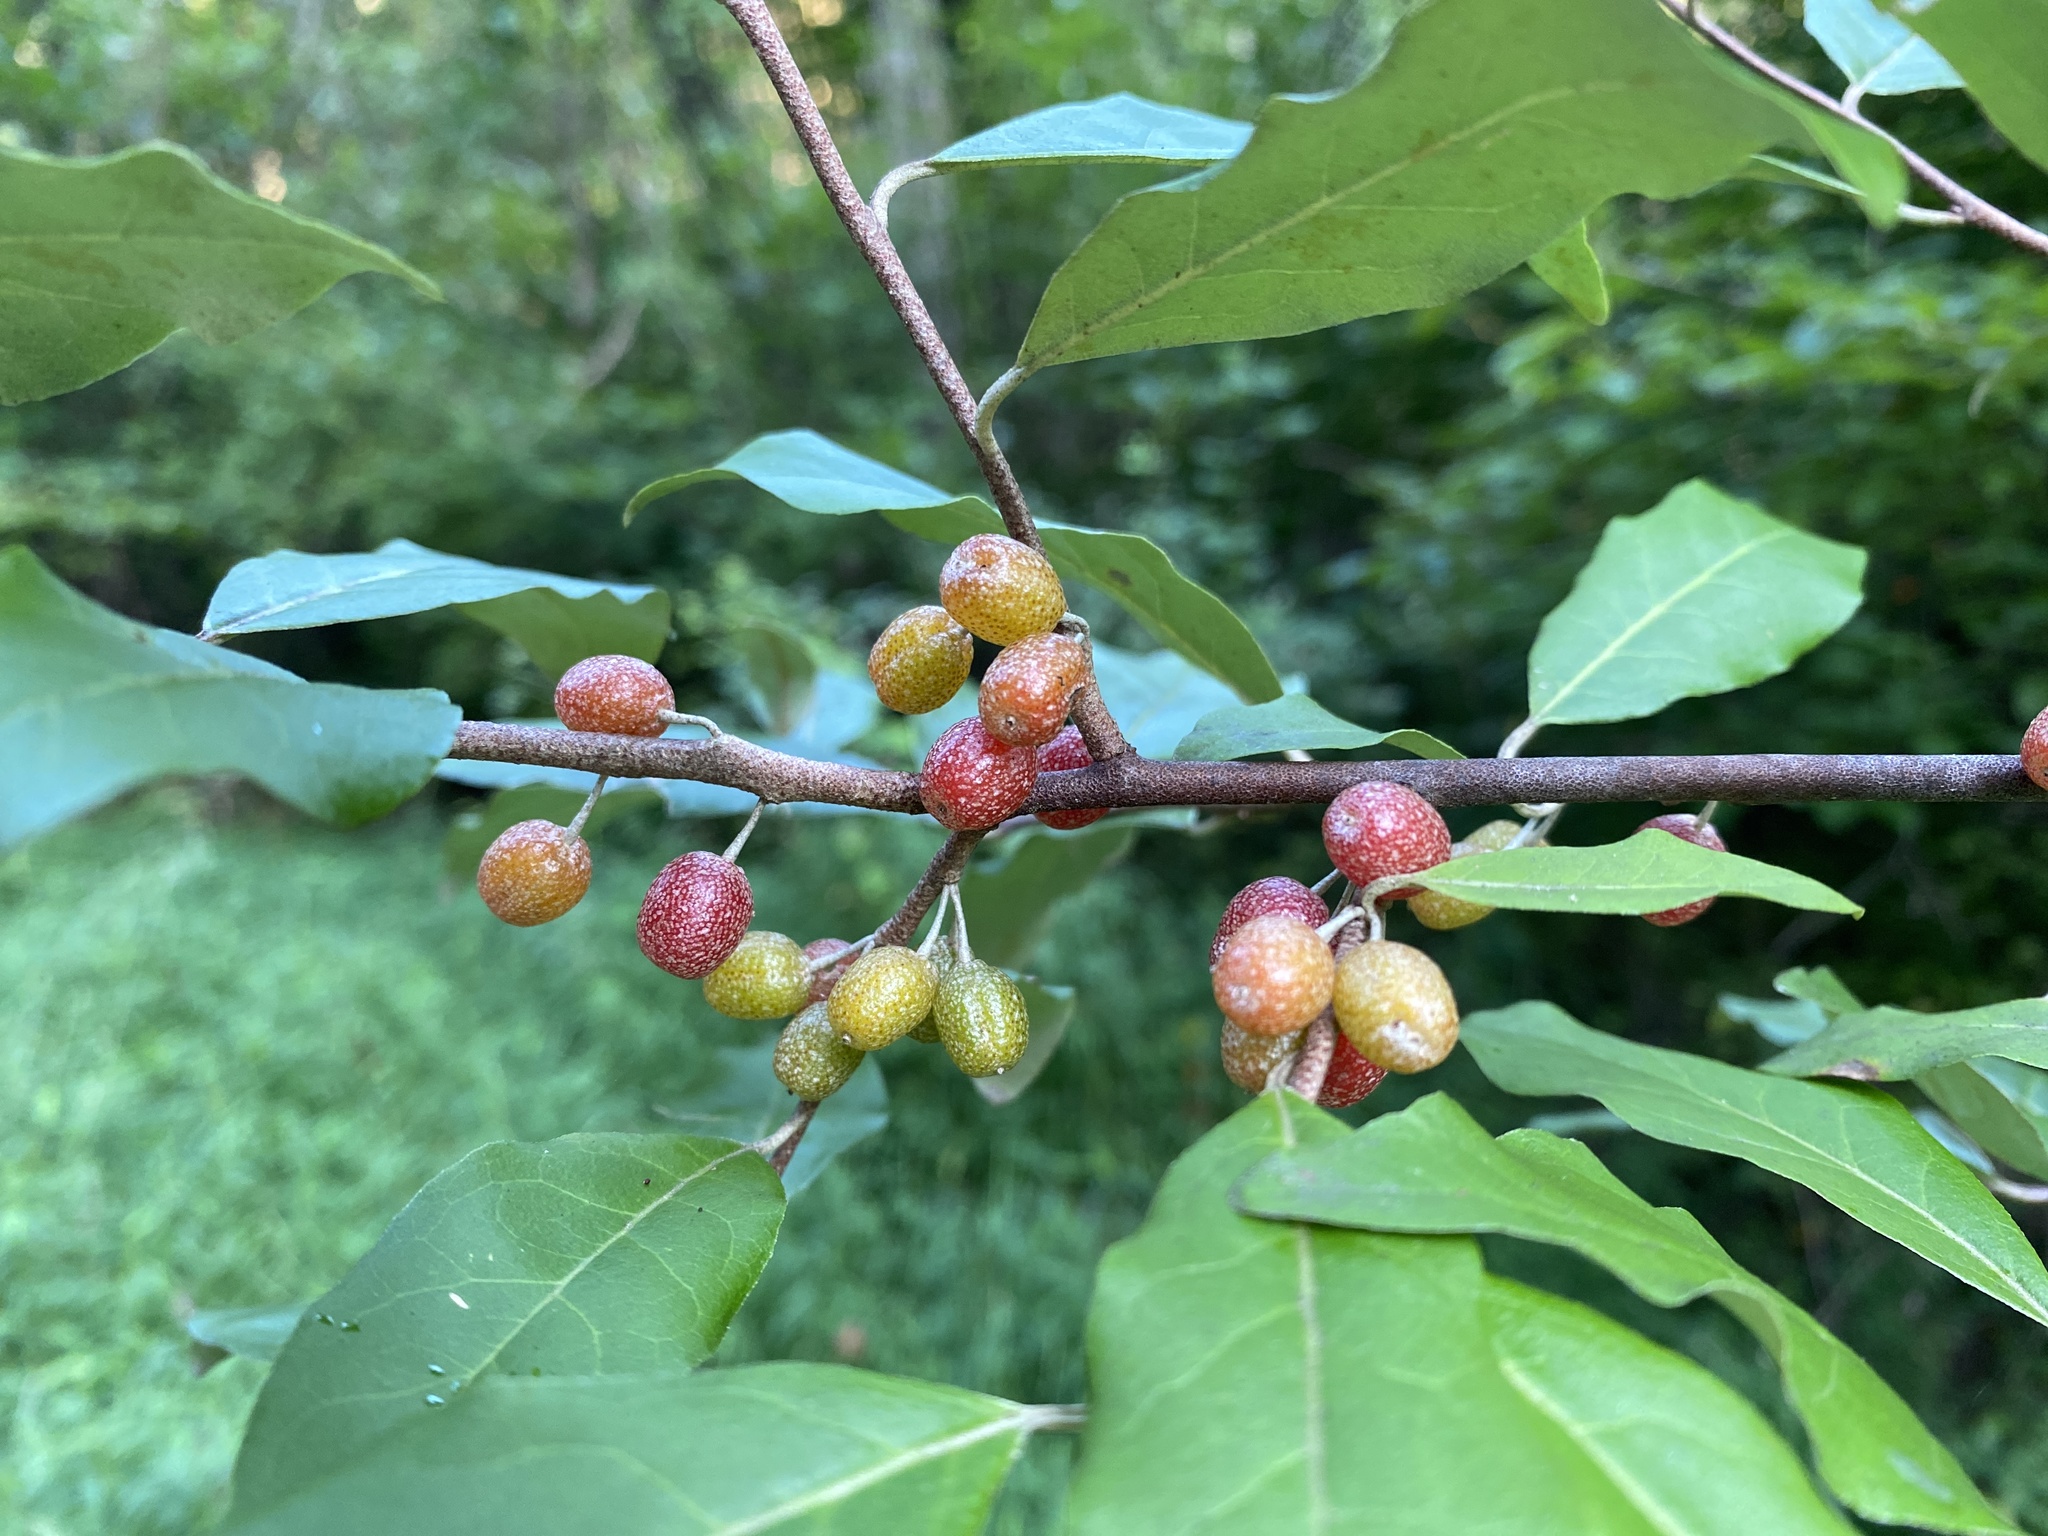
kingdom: Plantae
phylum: Tracheophyta
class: Magnoliopsida
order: Rosales
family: Elaeagnaceae
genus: Elaeagnus
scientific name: Elaeagnus umbellata
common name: Autumn olive
